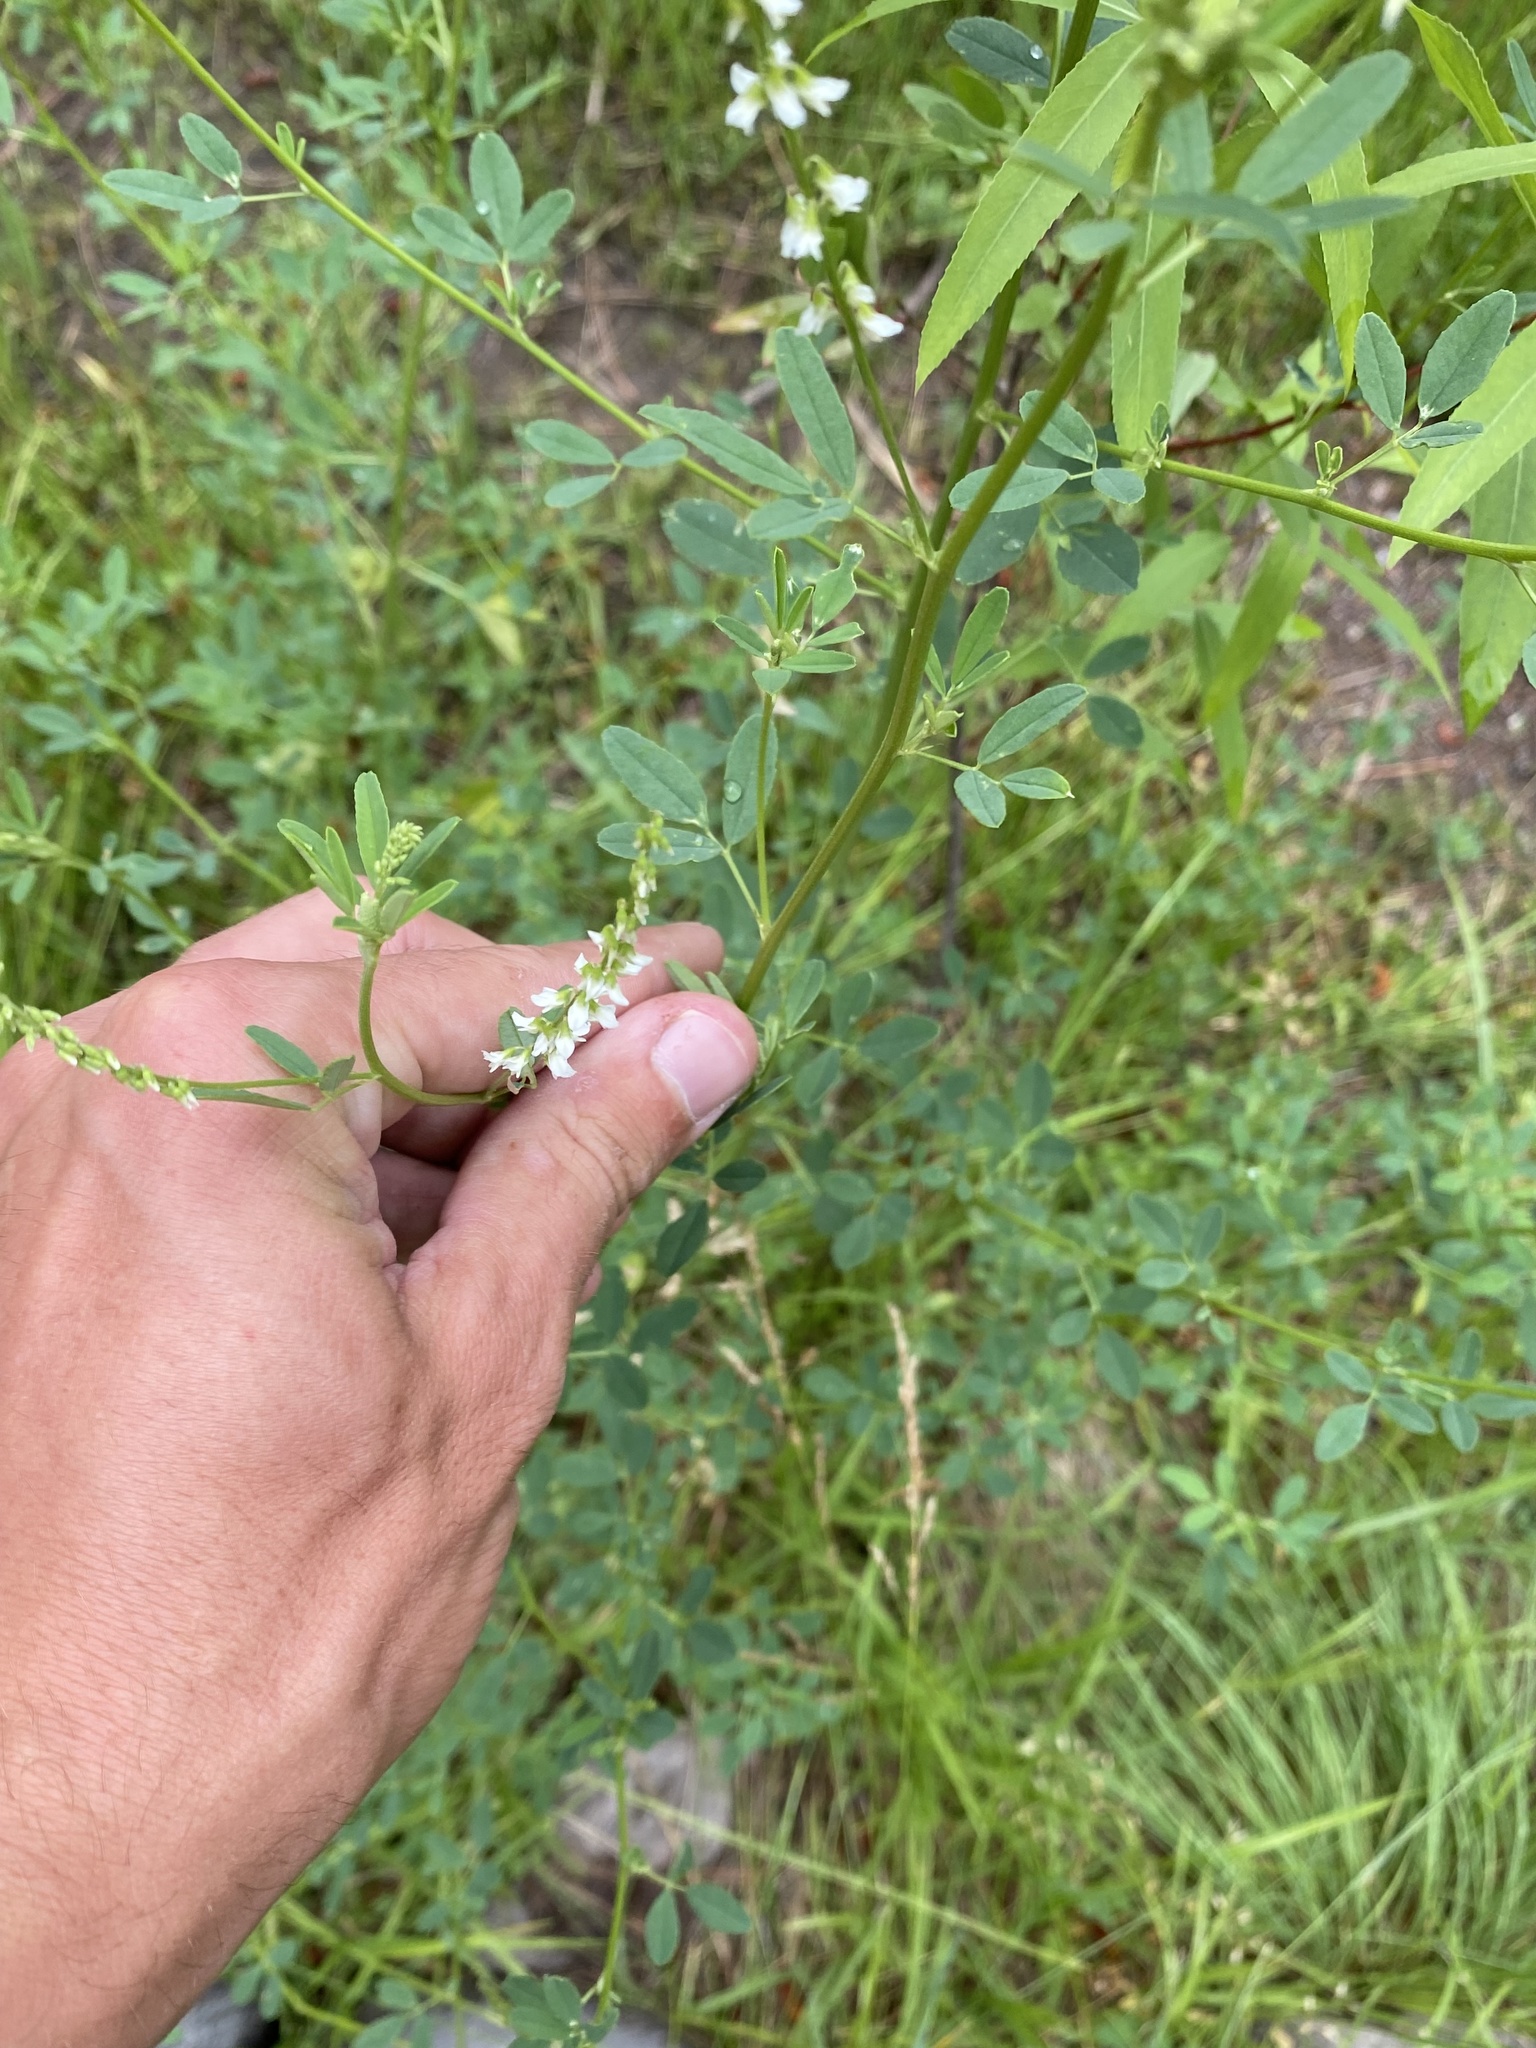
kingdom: Plantae
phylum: Tracheophyta
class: Magnoliopsida
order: Fabales
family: Fabaceae
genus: Melilotus
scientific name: Melilotus albus
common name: White melilot
